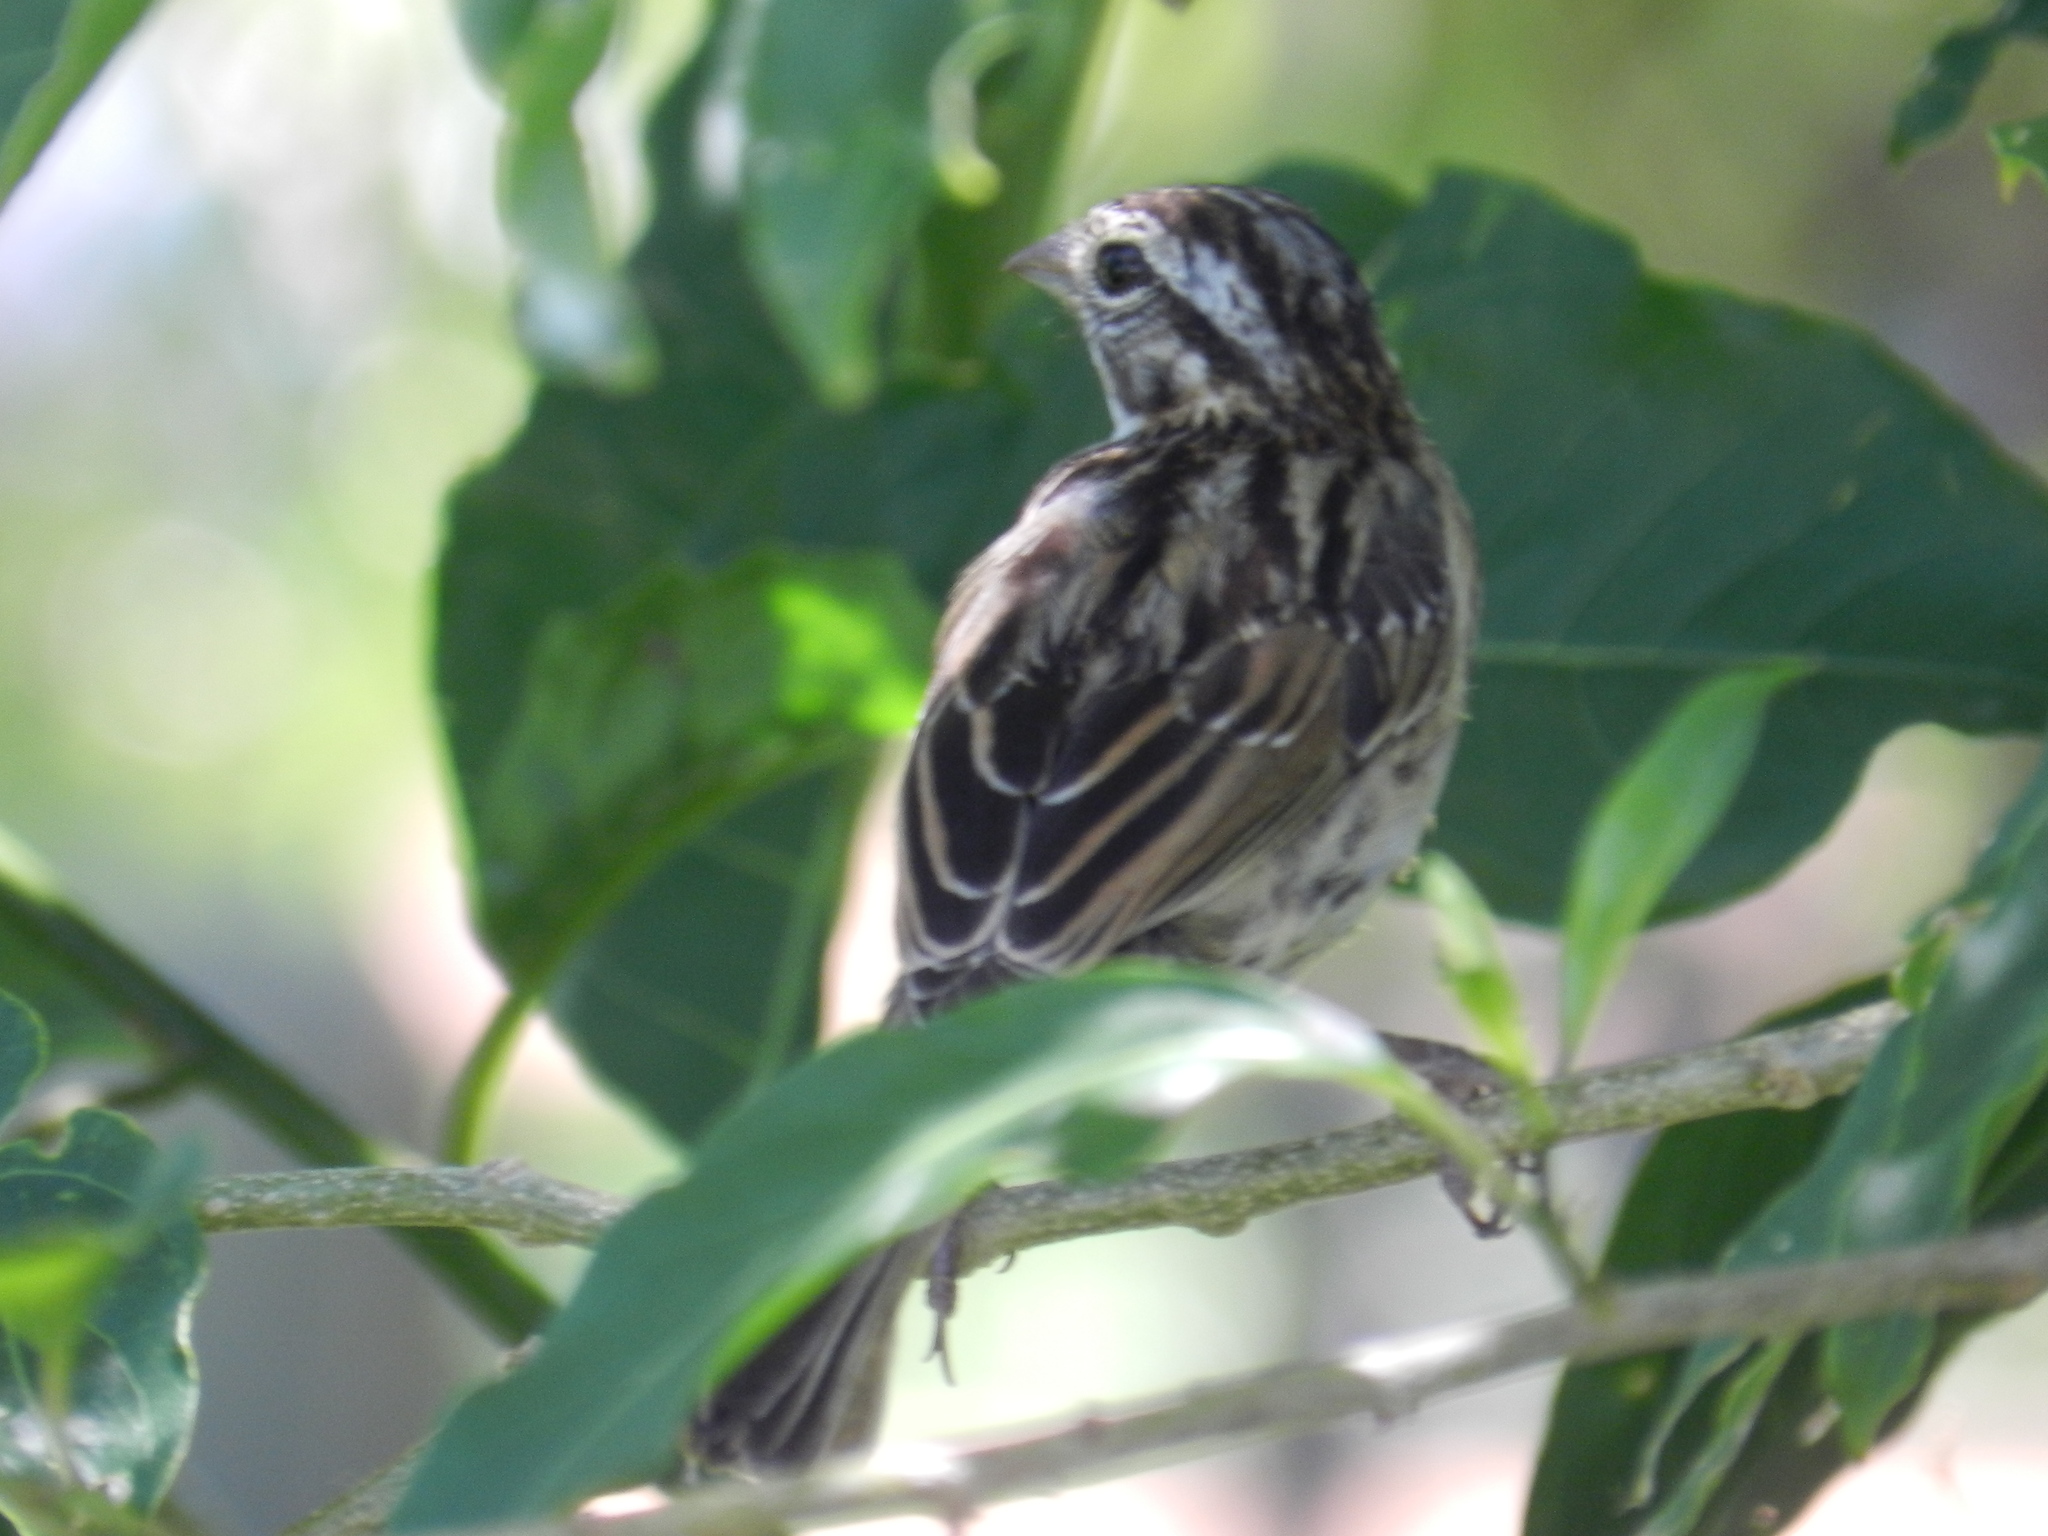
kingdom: Animalia
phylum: Chordata
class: Aves
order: Passeriformes
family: Passerellidae
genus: Zonotrichia
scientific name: Zonotrichia capensis
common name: Rufous-collared sparrow
